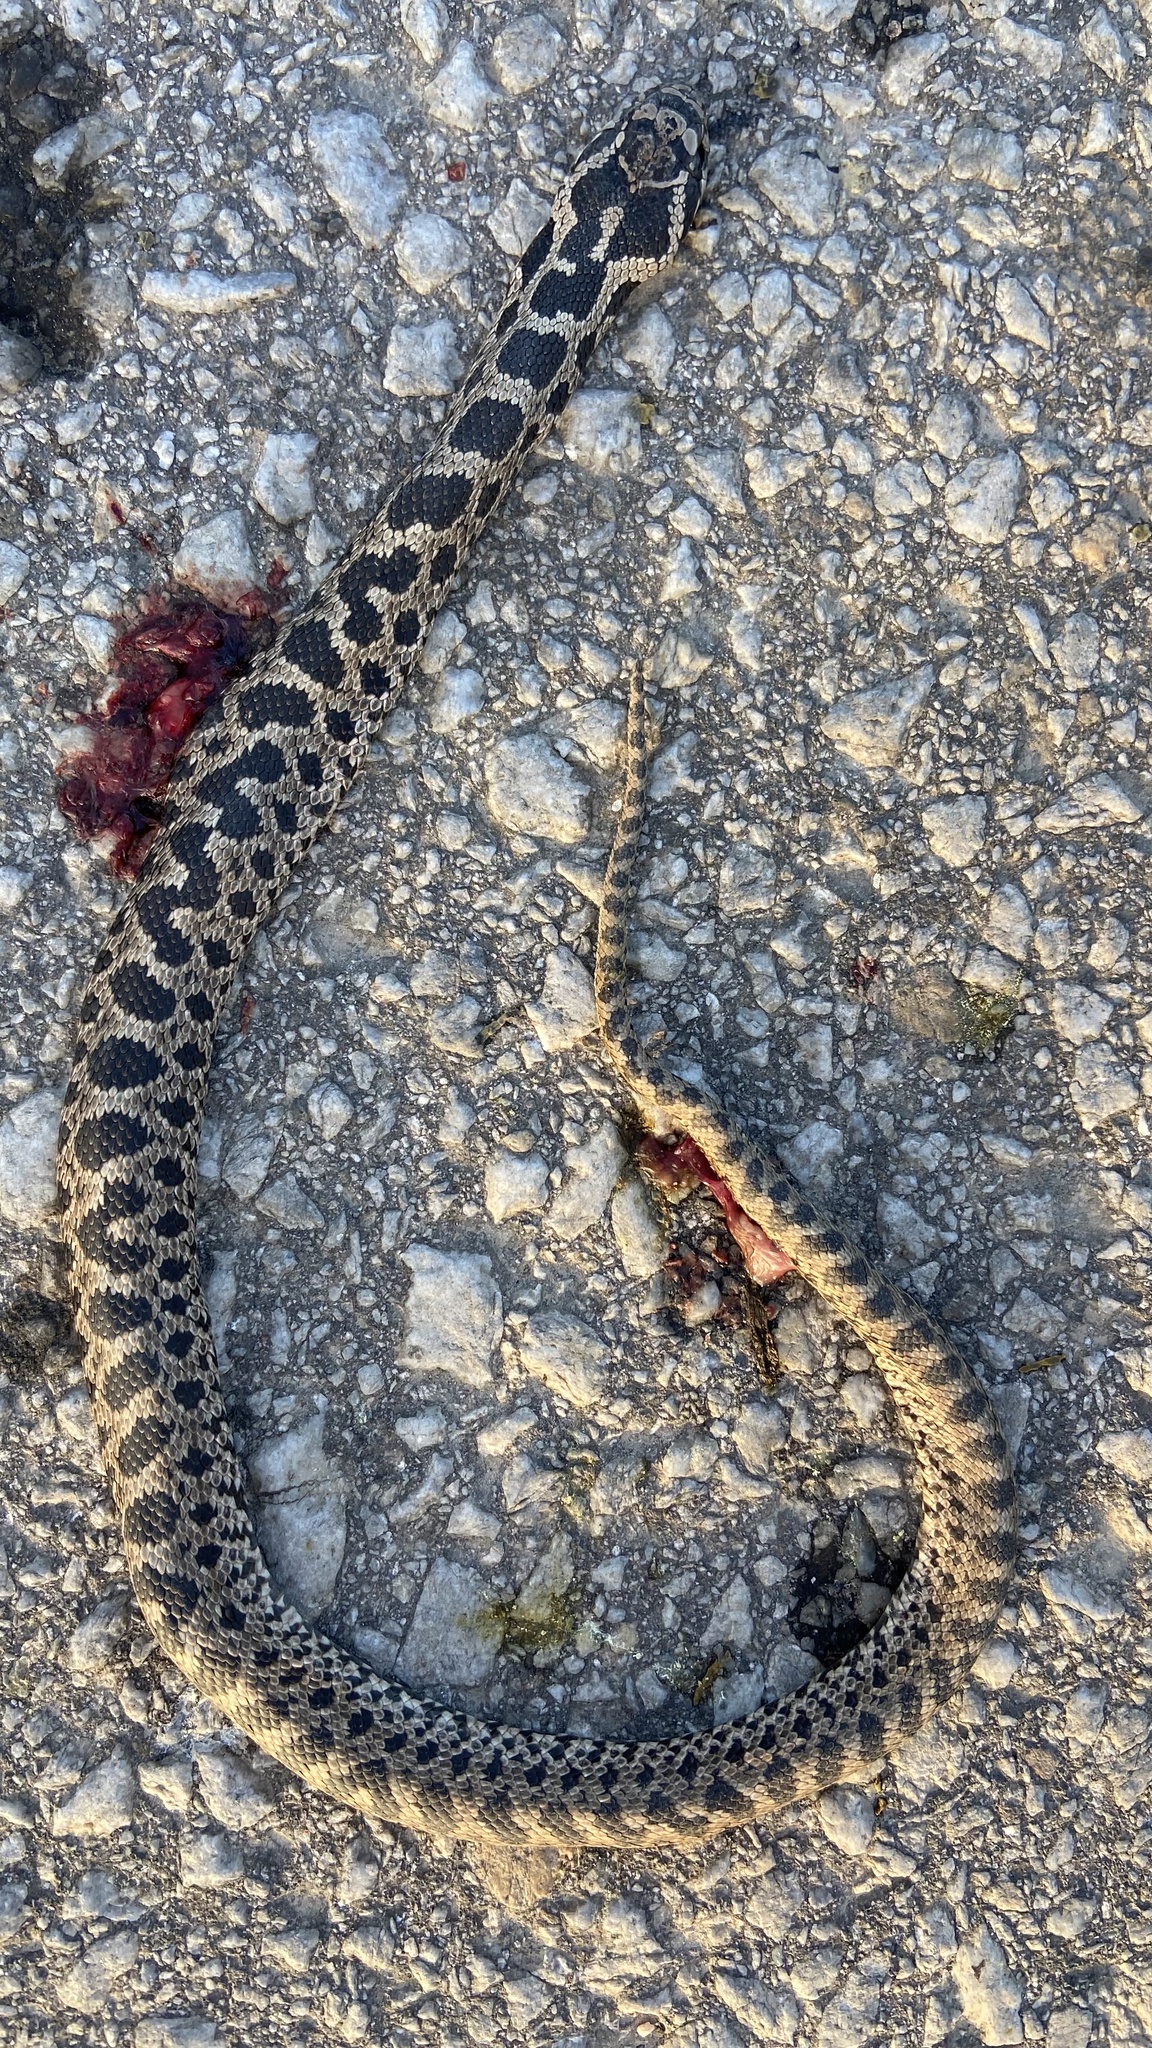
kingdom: Animalia
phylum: Chordata
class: Squamata
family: Colubridae
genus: Elaphe
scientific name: Elaphe quatuorlineata
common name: Four-lined snake
